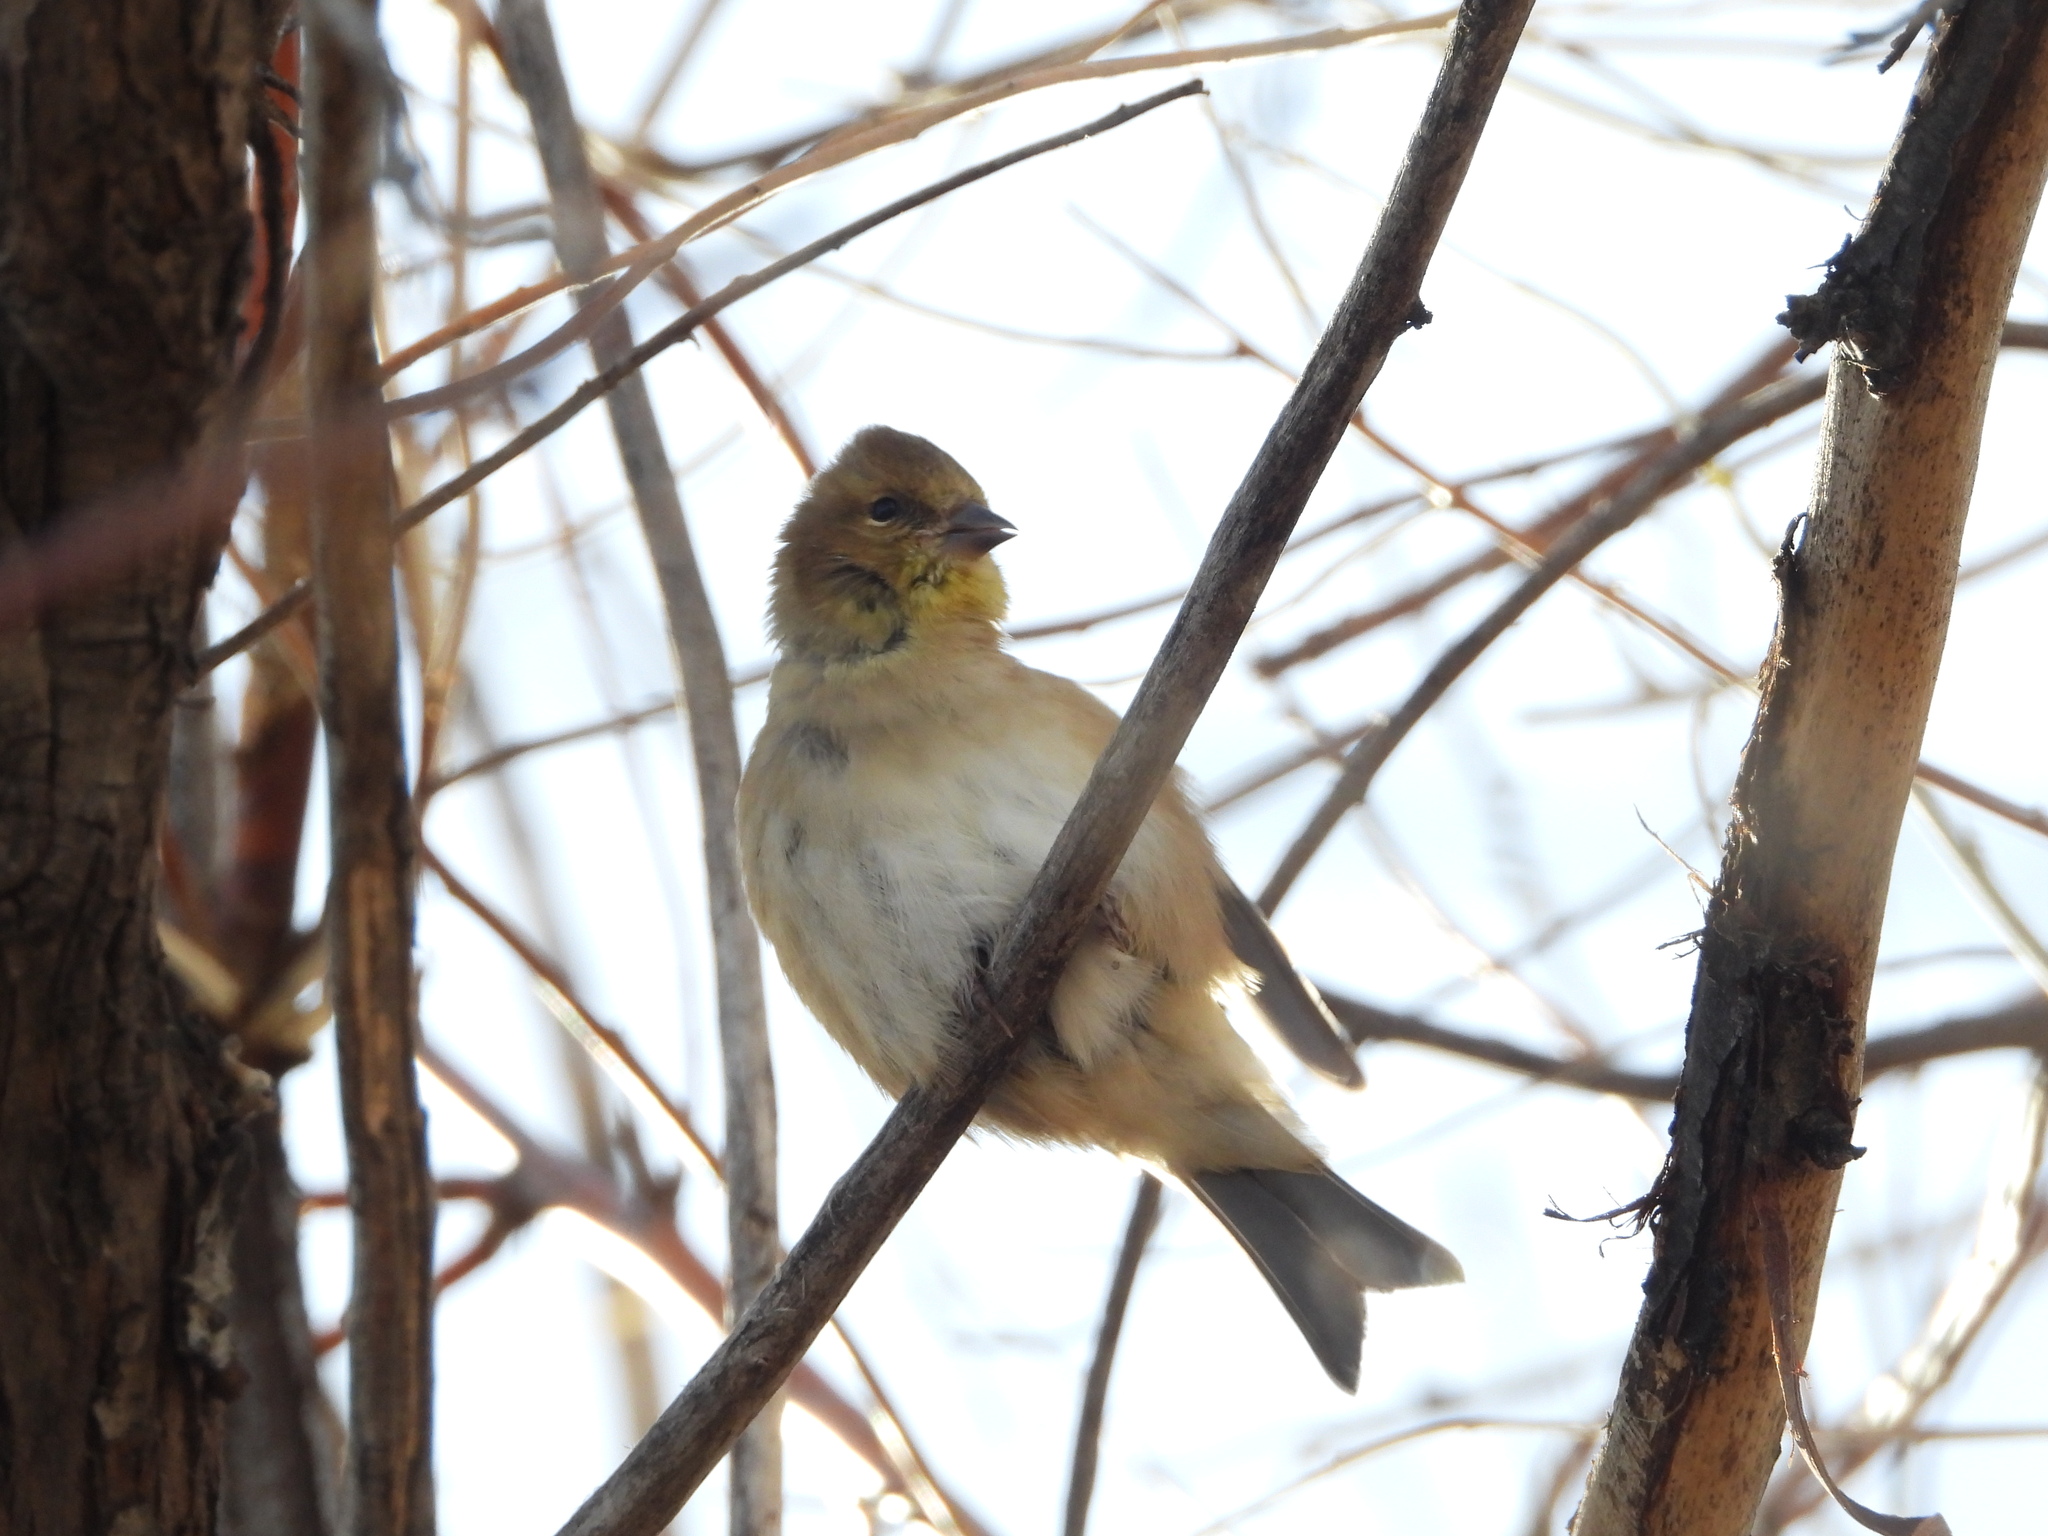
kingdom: Animalia
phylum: Chordata
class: Aves
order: Passeriformes
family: Fringillidae
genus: Spinus
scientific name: Spinus tristis
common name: American goldfinch
